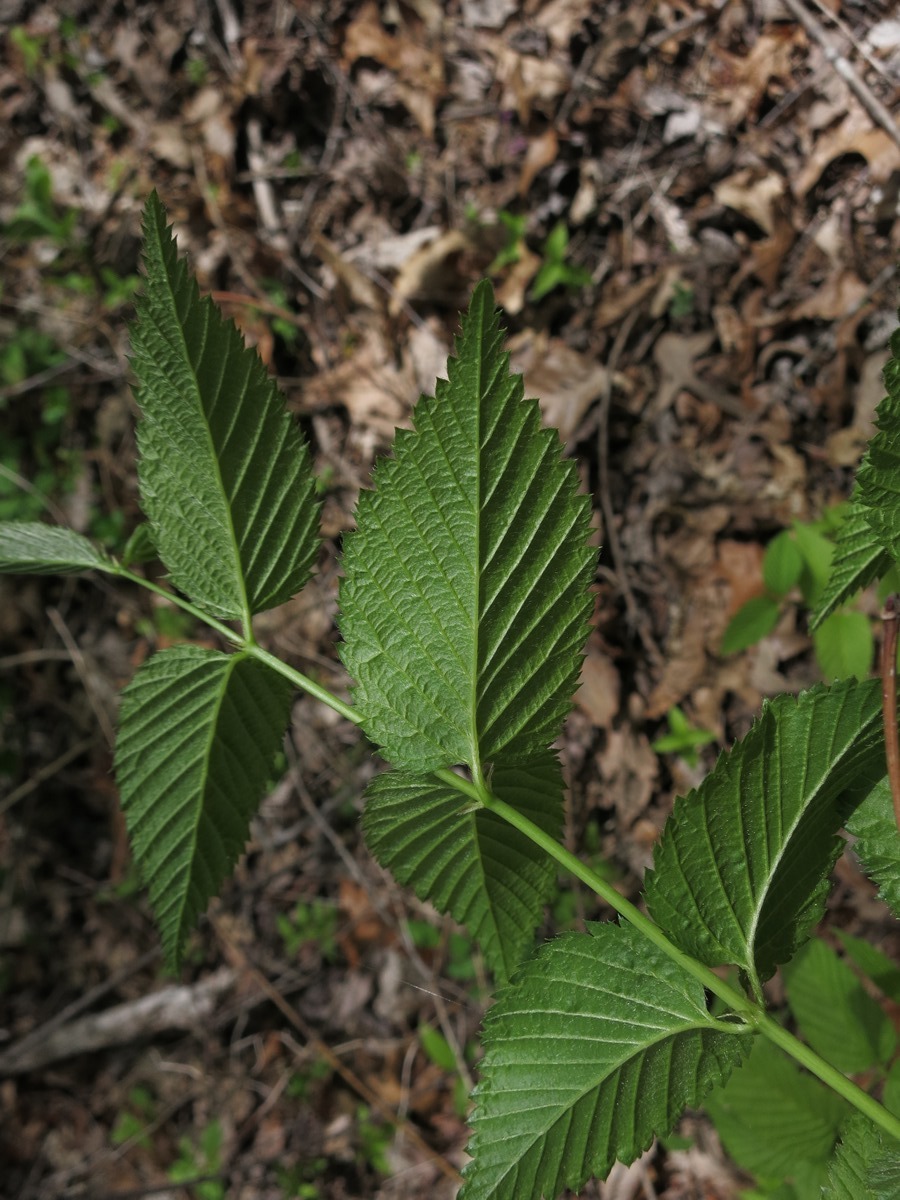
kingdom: Plantae
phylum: Tracheophyta
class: Magnoliopsida
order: Rosales
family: Rosaceae
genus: Rhodotypos
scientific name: Rhodotypos scandens
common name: Jetbead
